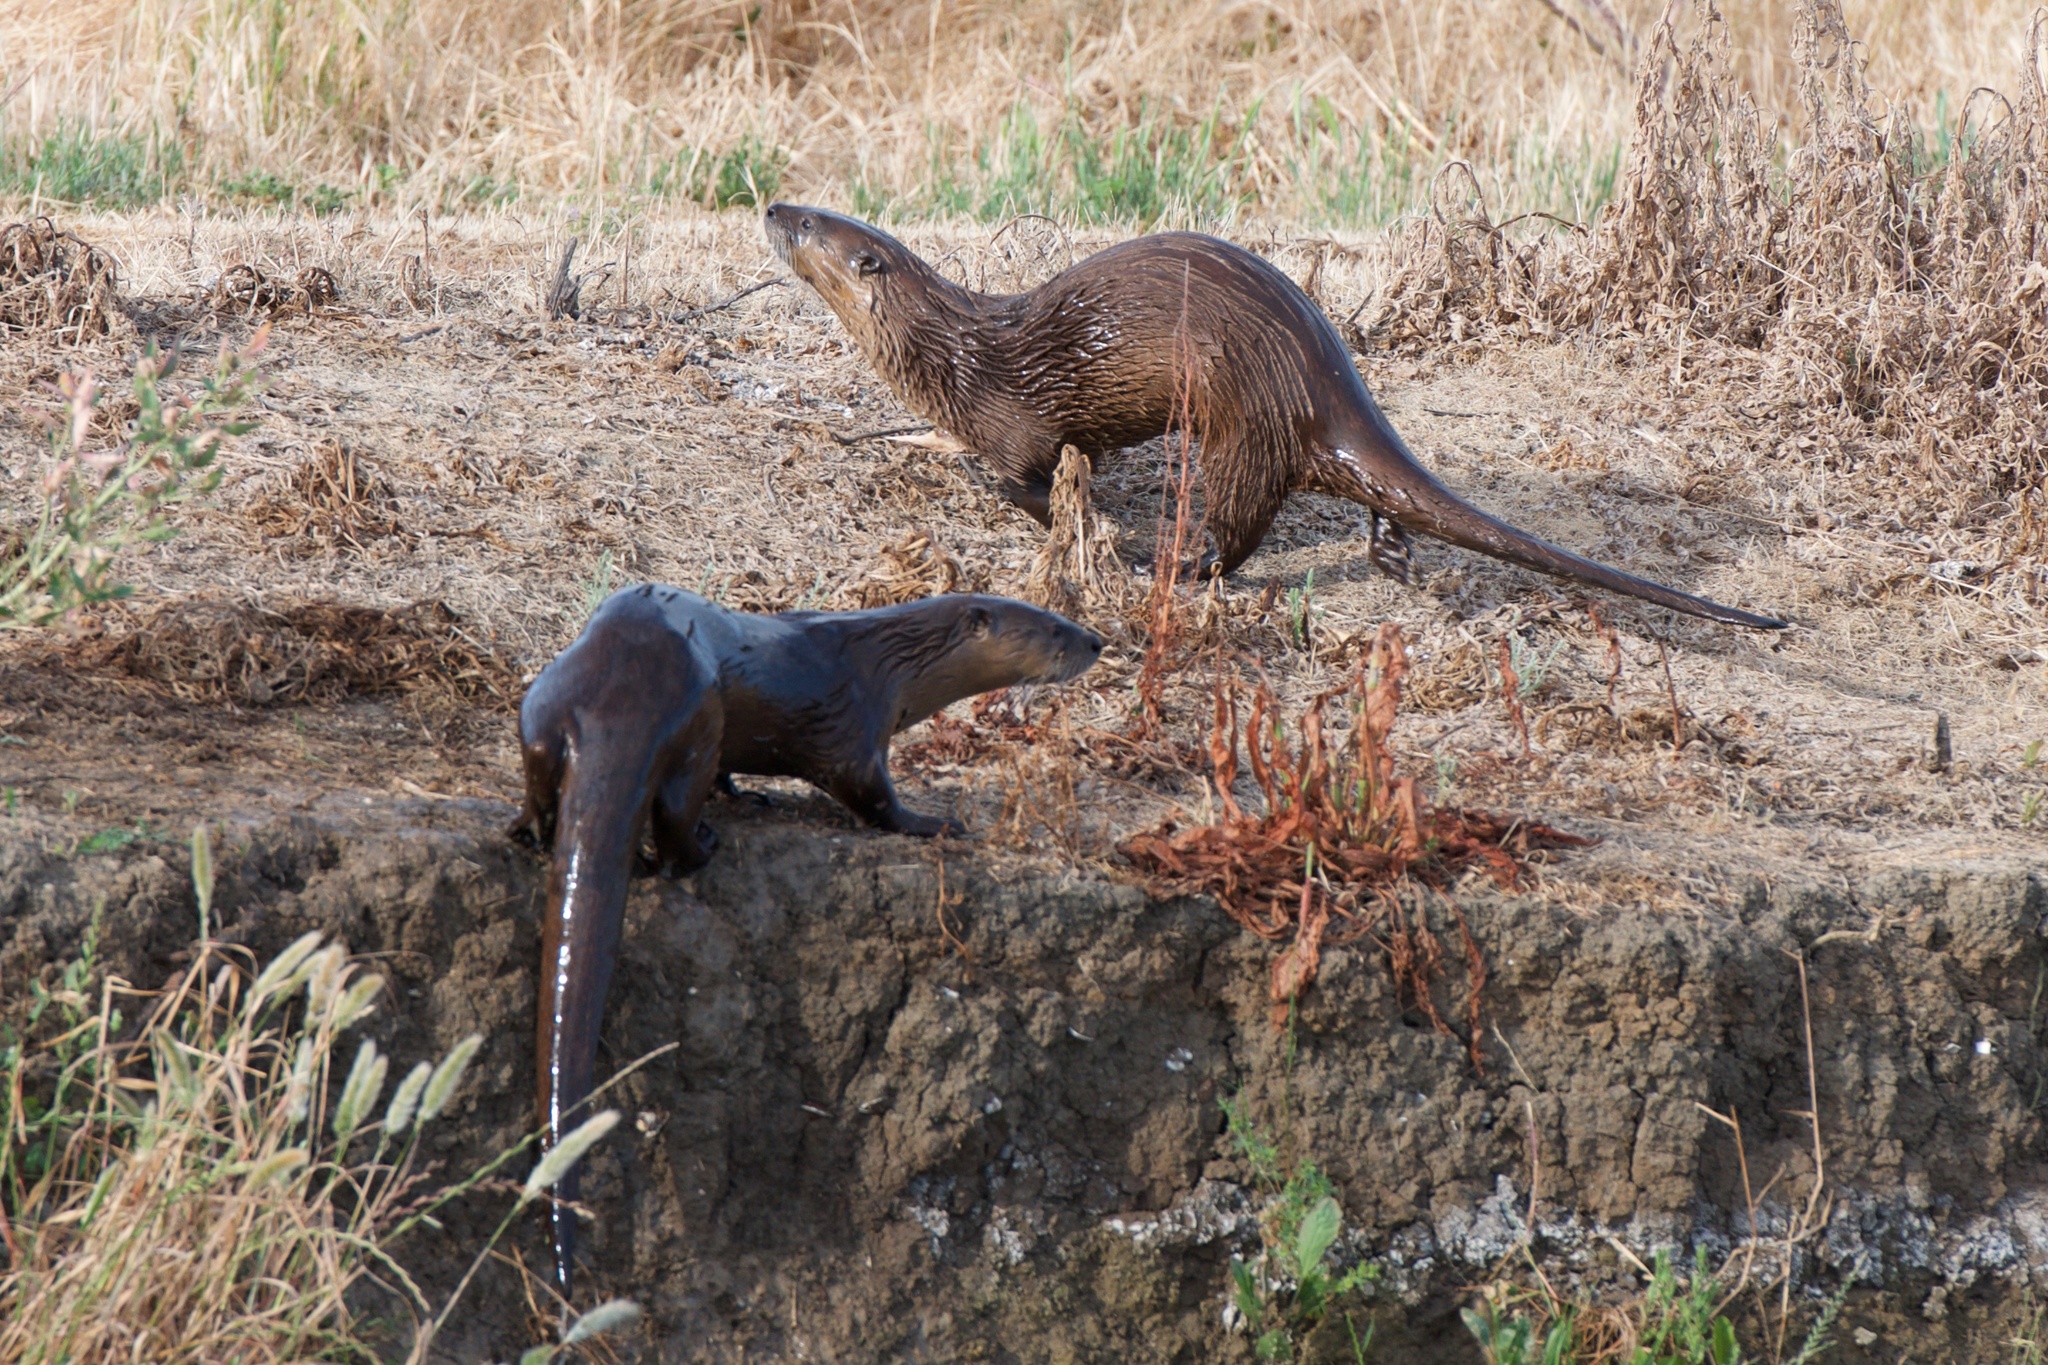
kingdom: Animalia
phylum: Chordata
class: Mammalia
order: Carnivora
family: Mustelidae
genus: Lontra
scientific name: Lontra canadensis
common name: North american river otter
